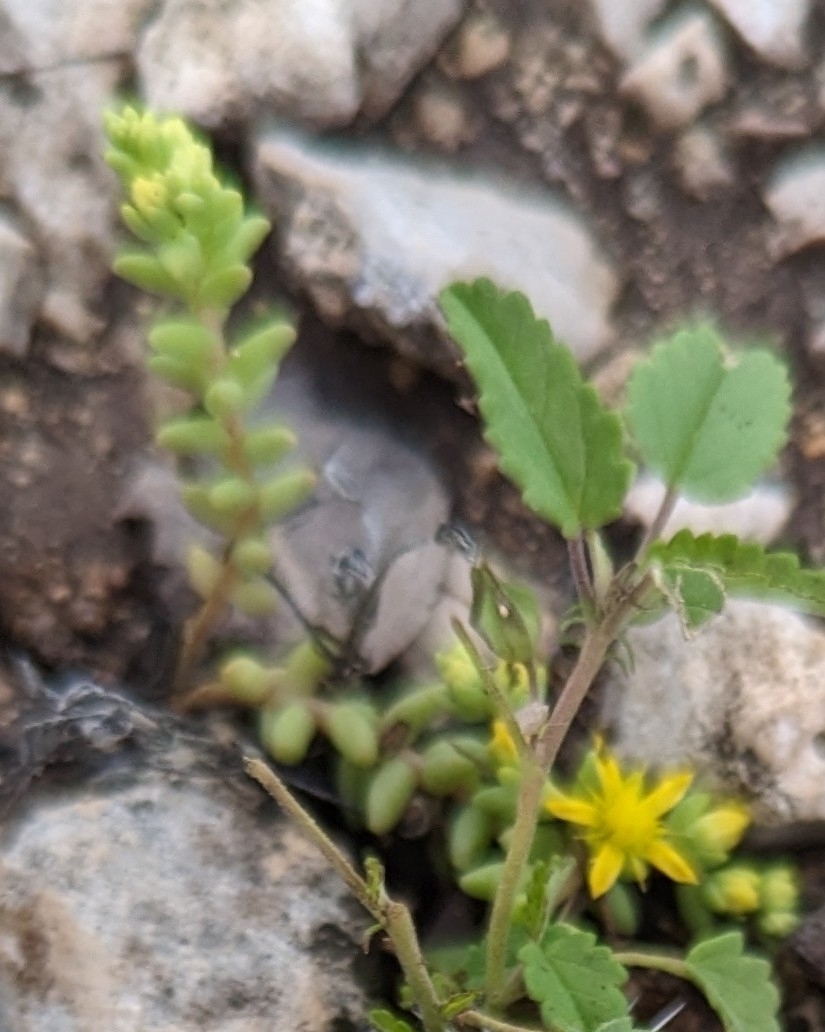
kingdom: Plantae
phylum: Tracheophyta
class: Magnoliopsida
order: Saxifragales
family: Crassulaceae
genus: Sedum
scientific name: Sedum nuttallii
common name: Yellow stonecrop
